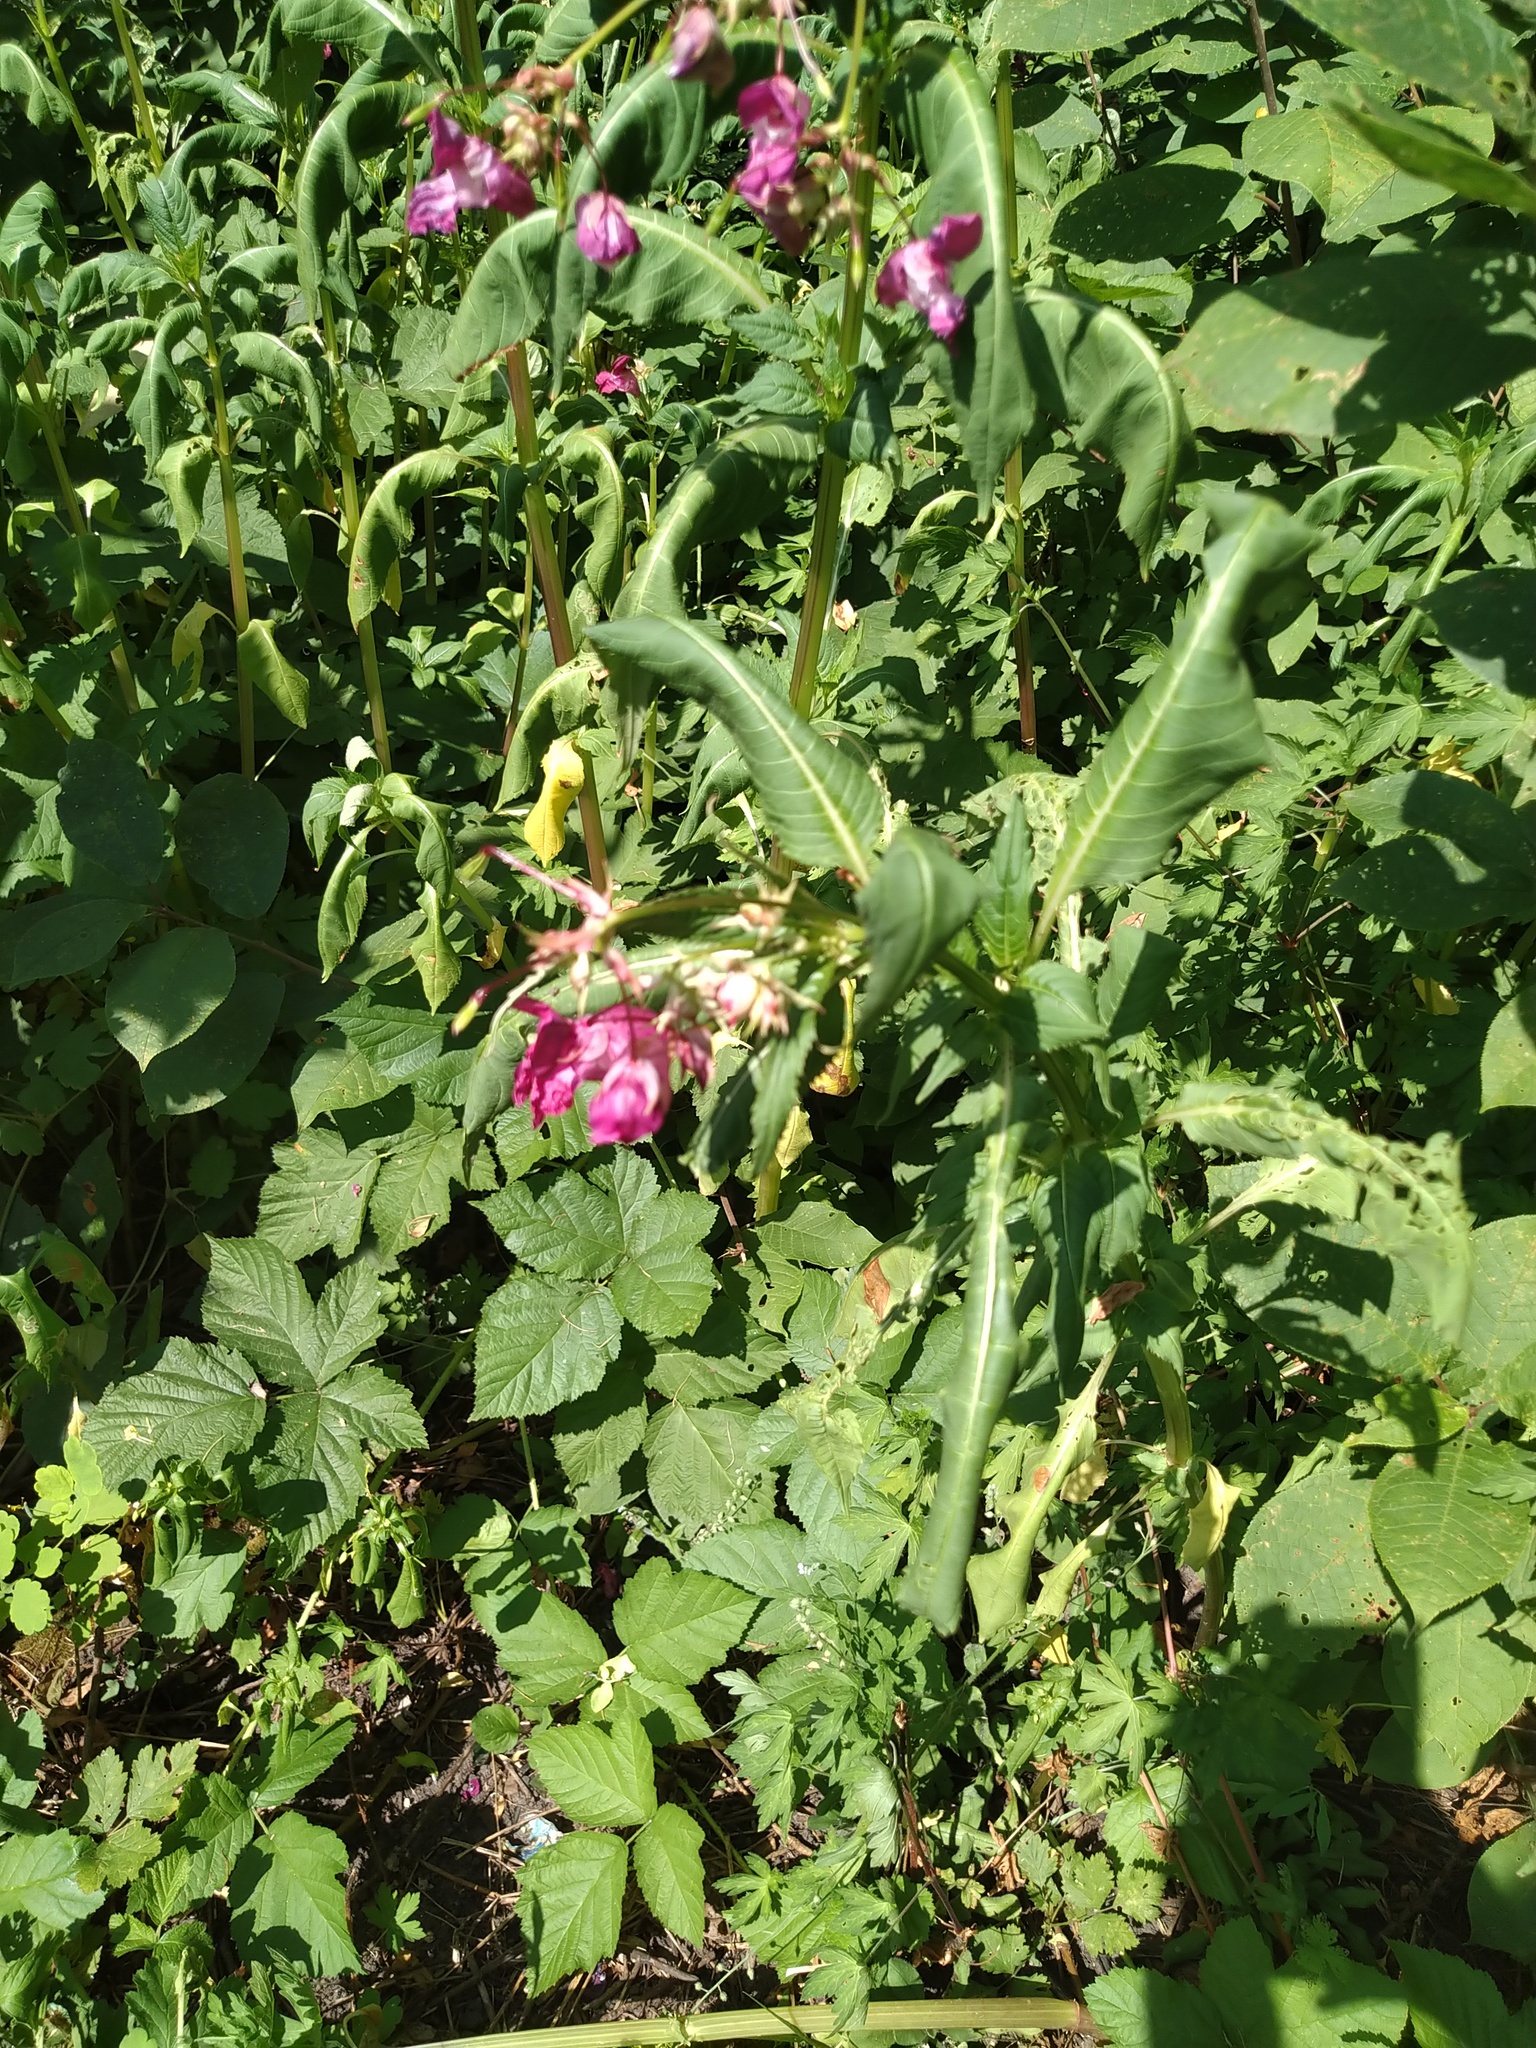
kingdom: Plantae
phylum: Tracheophyta
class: Magnoliopsida
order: Ericales
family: Balsaminaceae
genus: Impatiens
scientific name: Impatiens glandulifera
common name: Himalayan balsam
